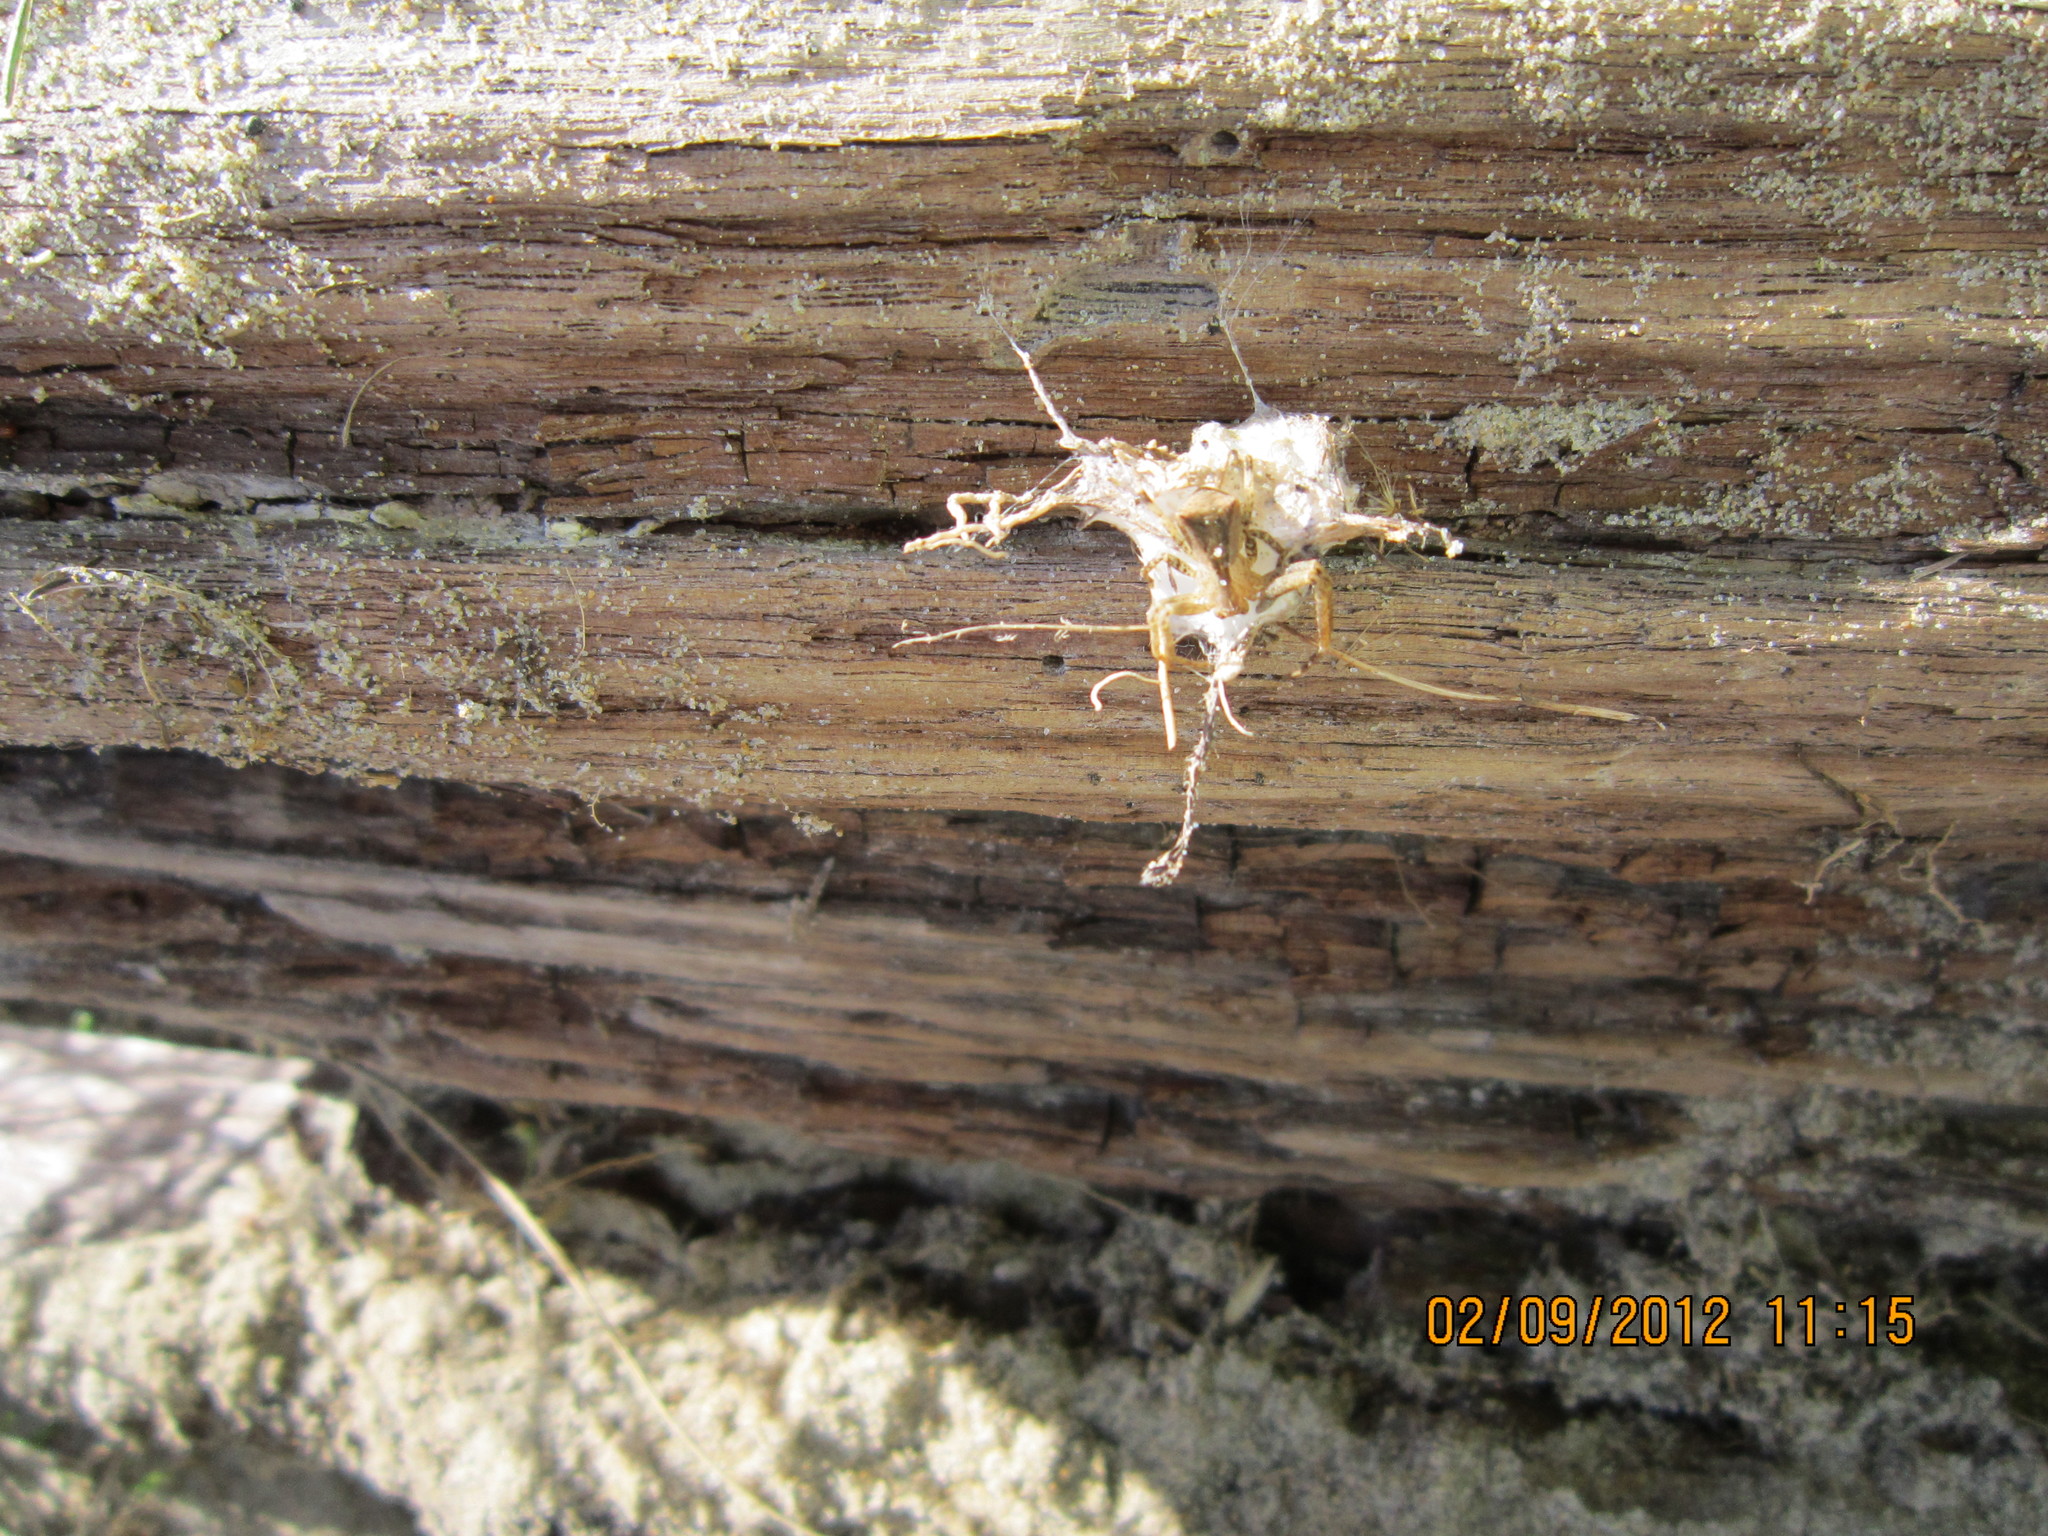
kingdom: Animalia
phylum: Arthropoda
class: Arachnida
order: Araneae
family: Thomisidae
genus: Sidymella
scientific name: Sidymella trapezia
